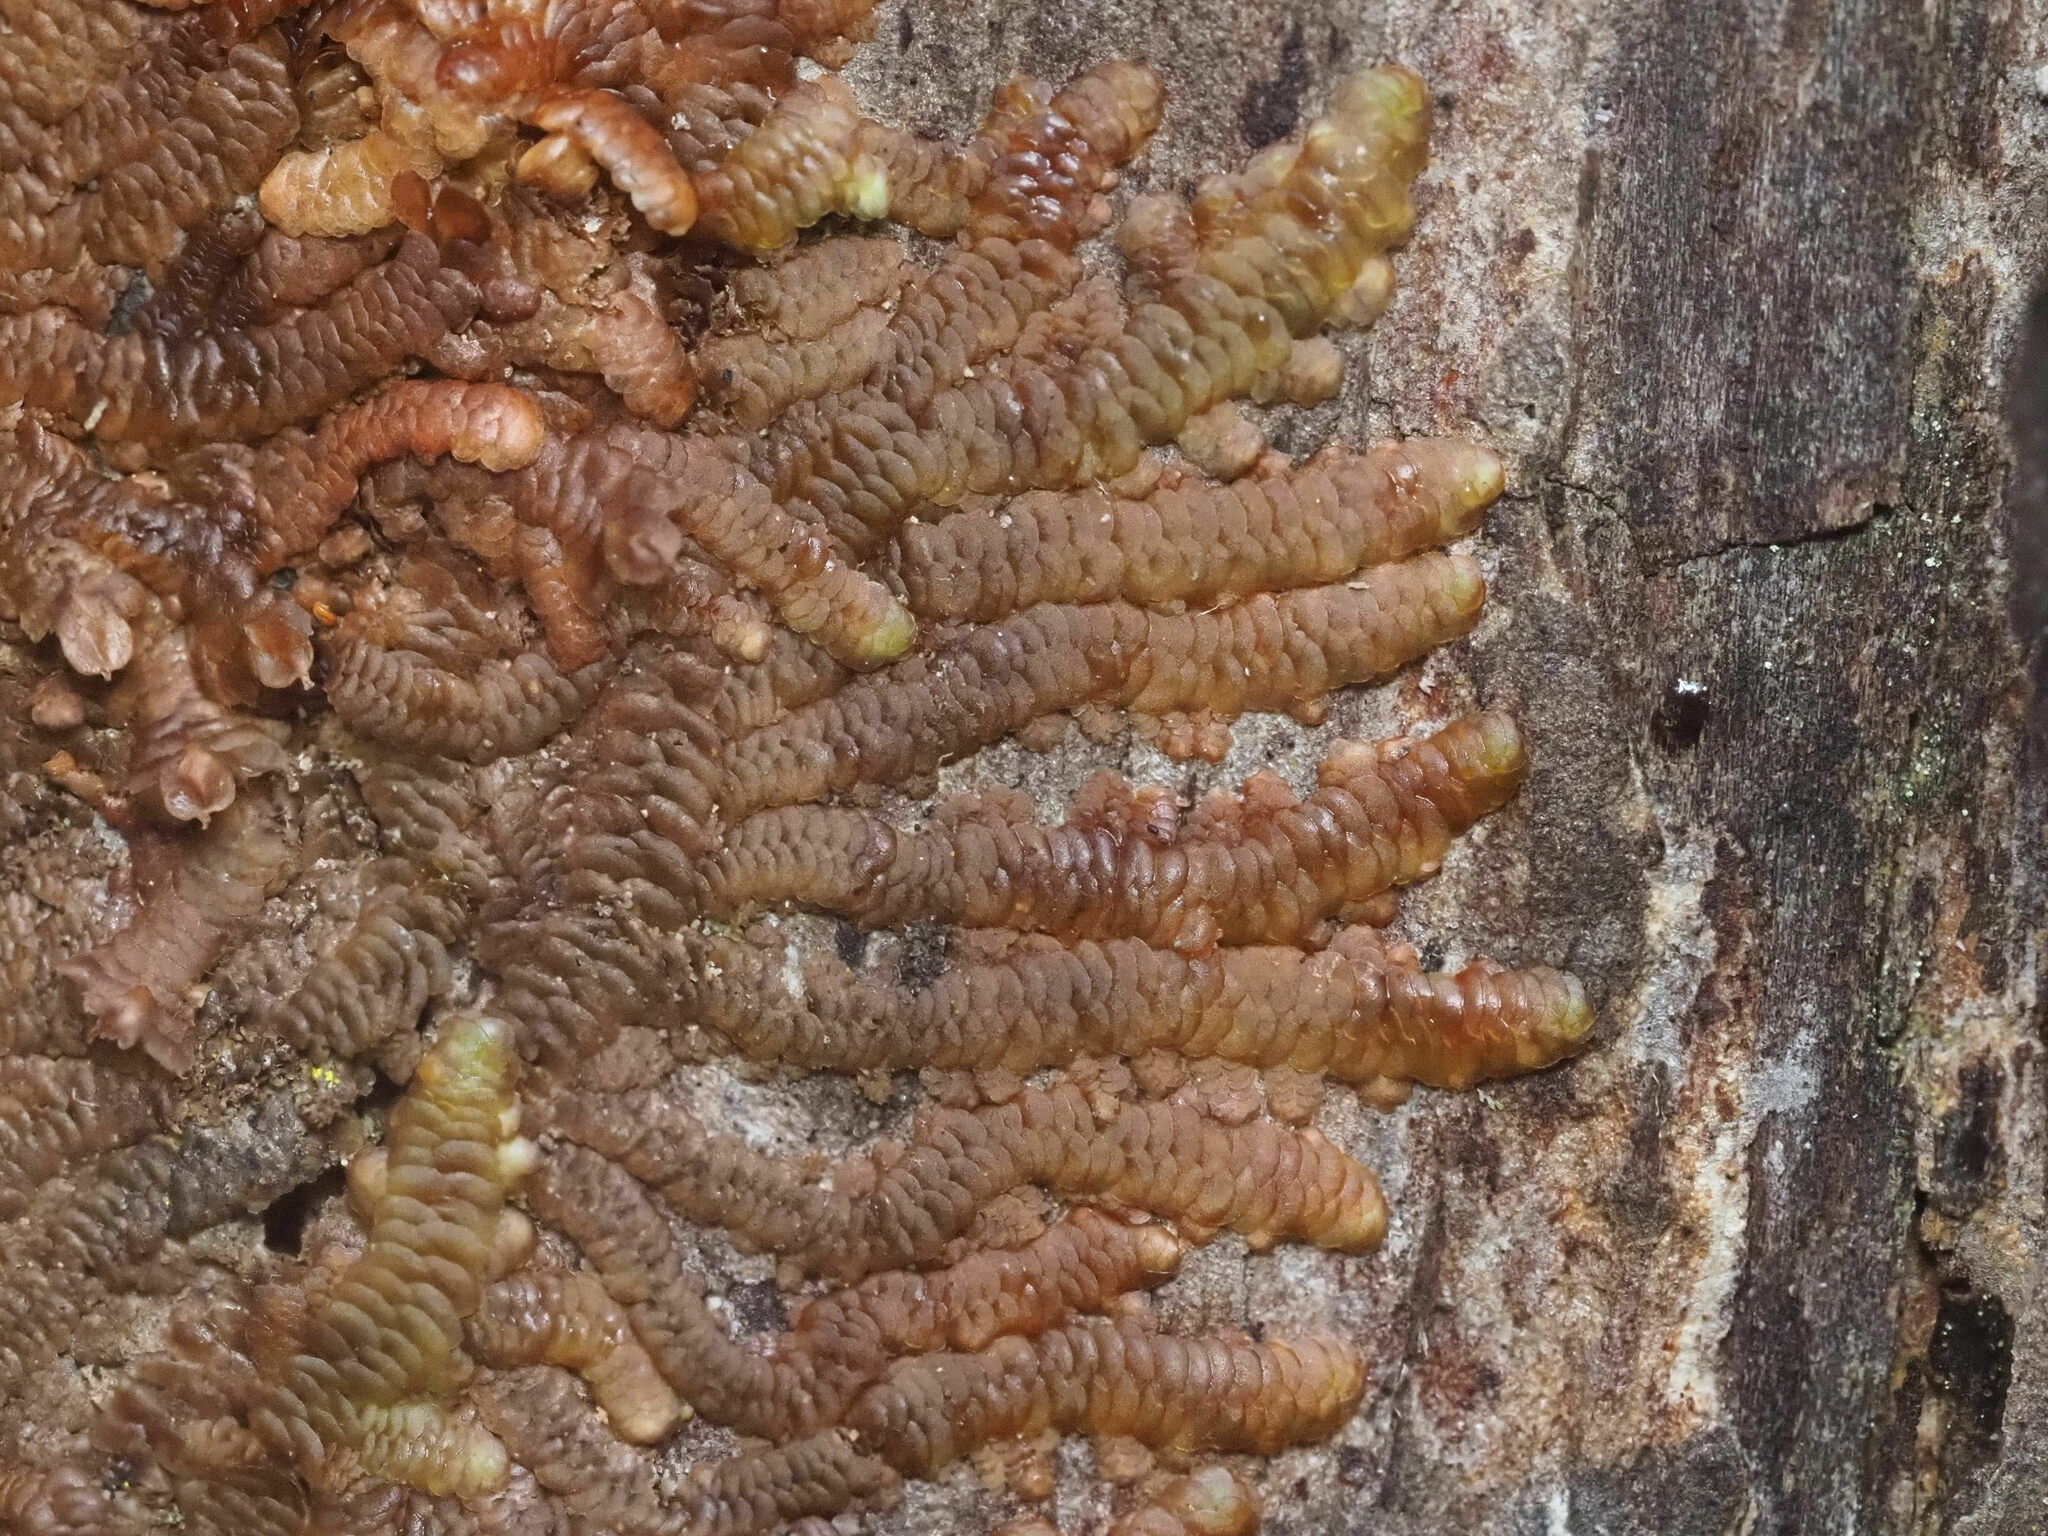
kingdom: Plantae
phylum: Marchantiophyta
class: Jungermanniopsida
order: Porellales
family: Frullaniaceae
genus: Frullania
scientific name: Frullania hypoleuca
